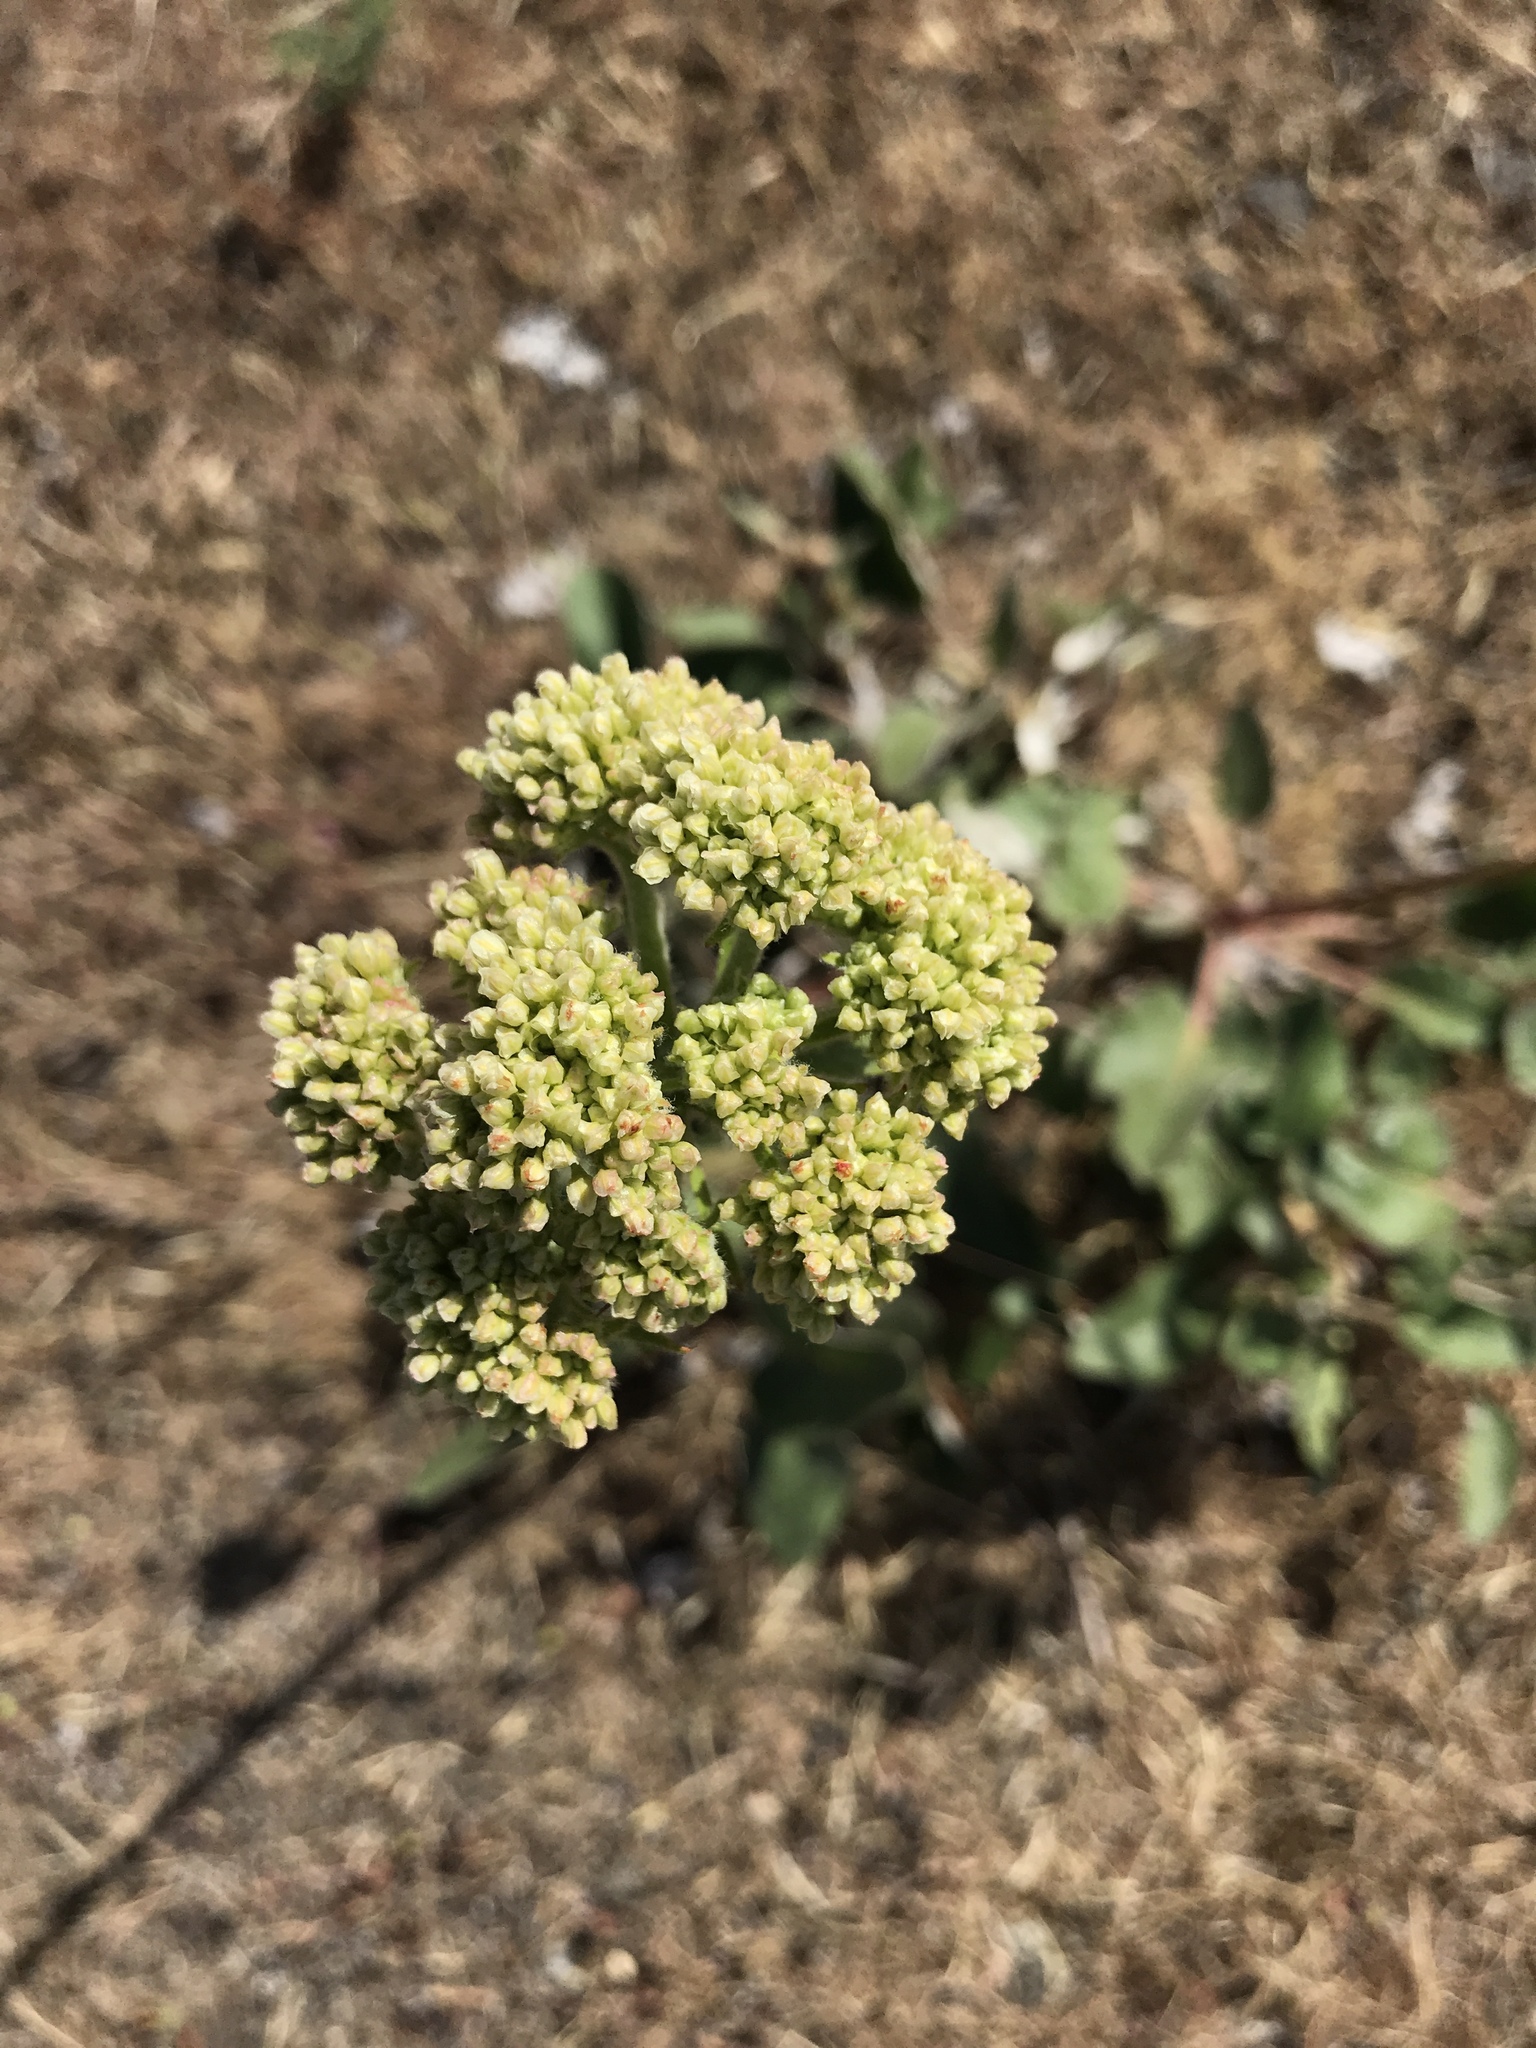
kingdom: Plantae
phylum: Tracheophyta
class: Magnoliopsida
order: Caryophyllales
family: Polygonaceae
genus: Eriogonum
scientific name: Eriogonum compositum
